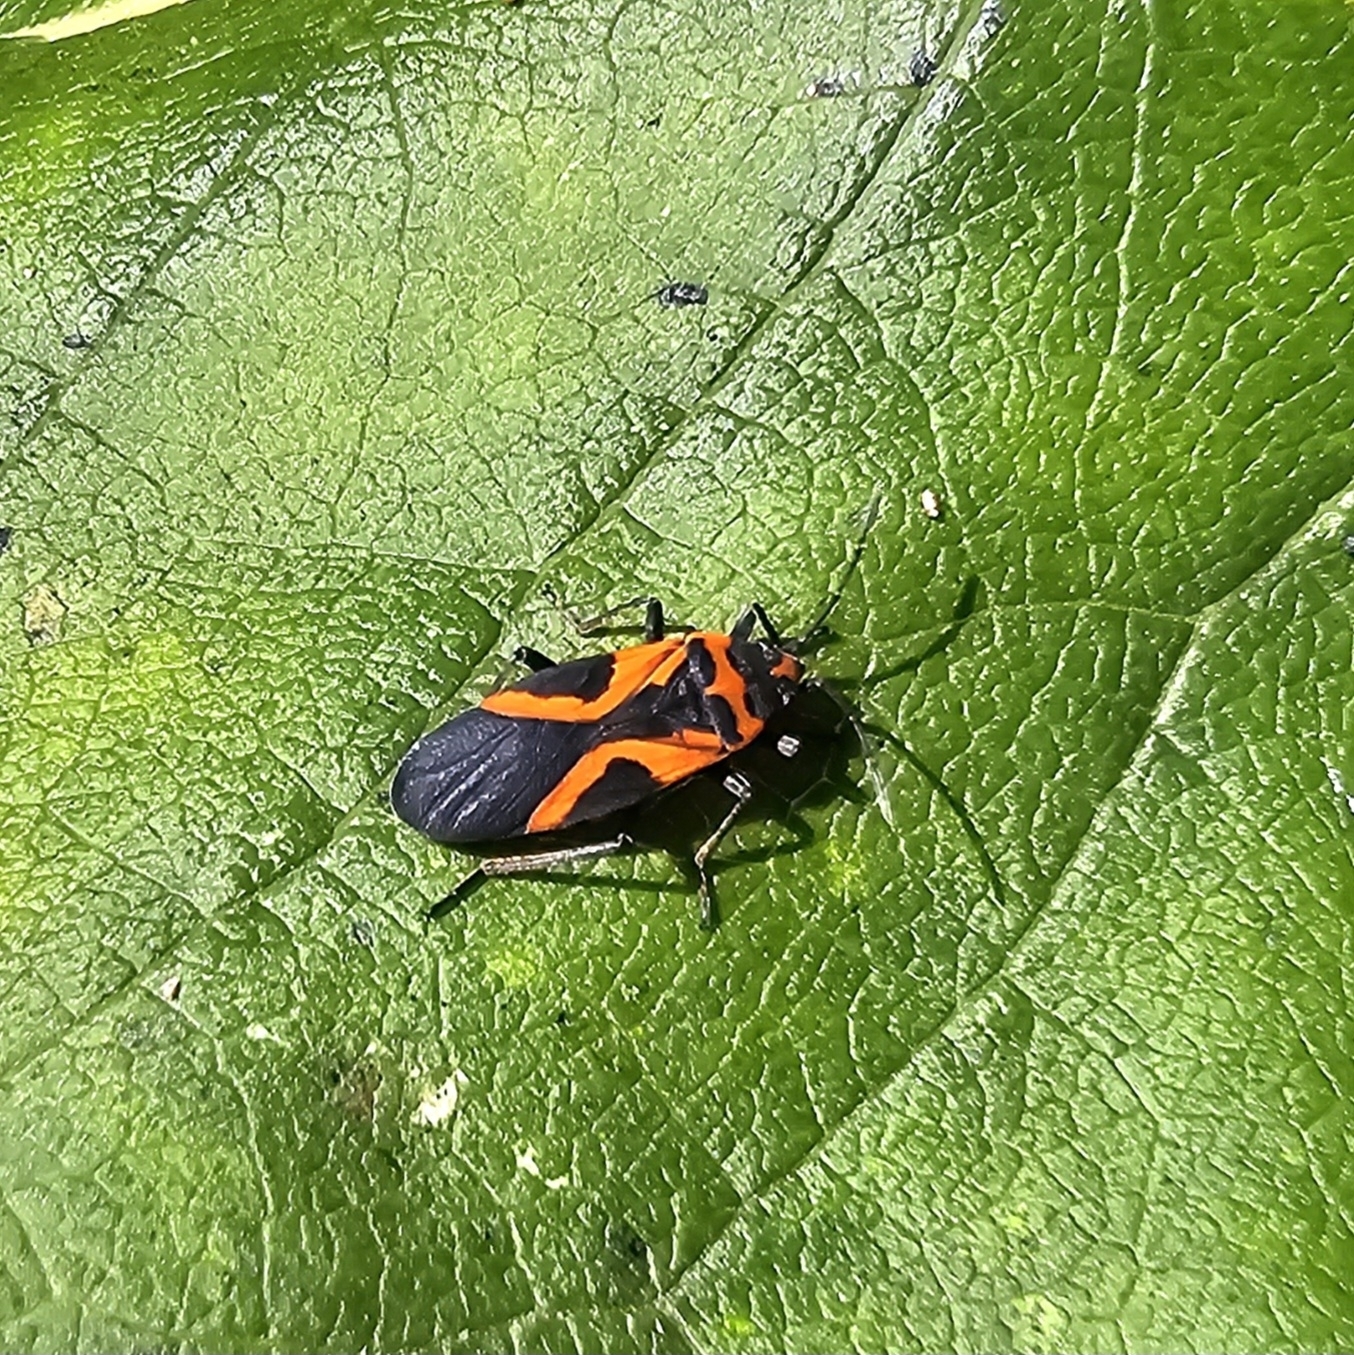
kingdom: Animalia
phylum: Arthropoda
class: Insecta
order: Hemiptera
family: Lygaeidae
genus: Lygaeus
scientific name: Lygaeus turcicus
